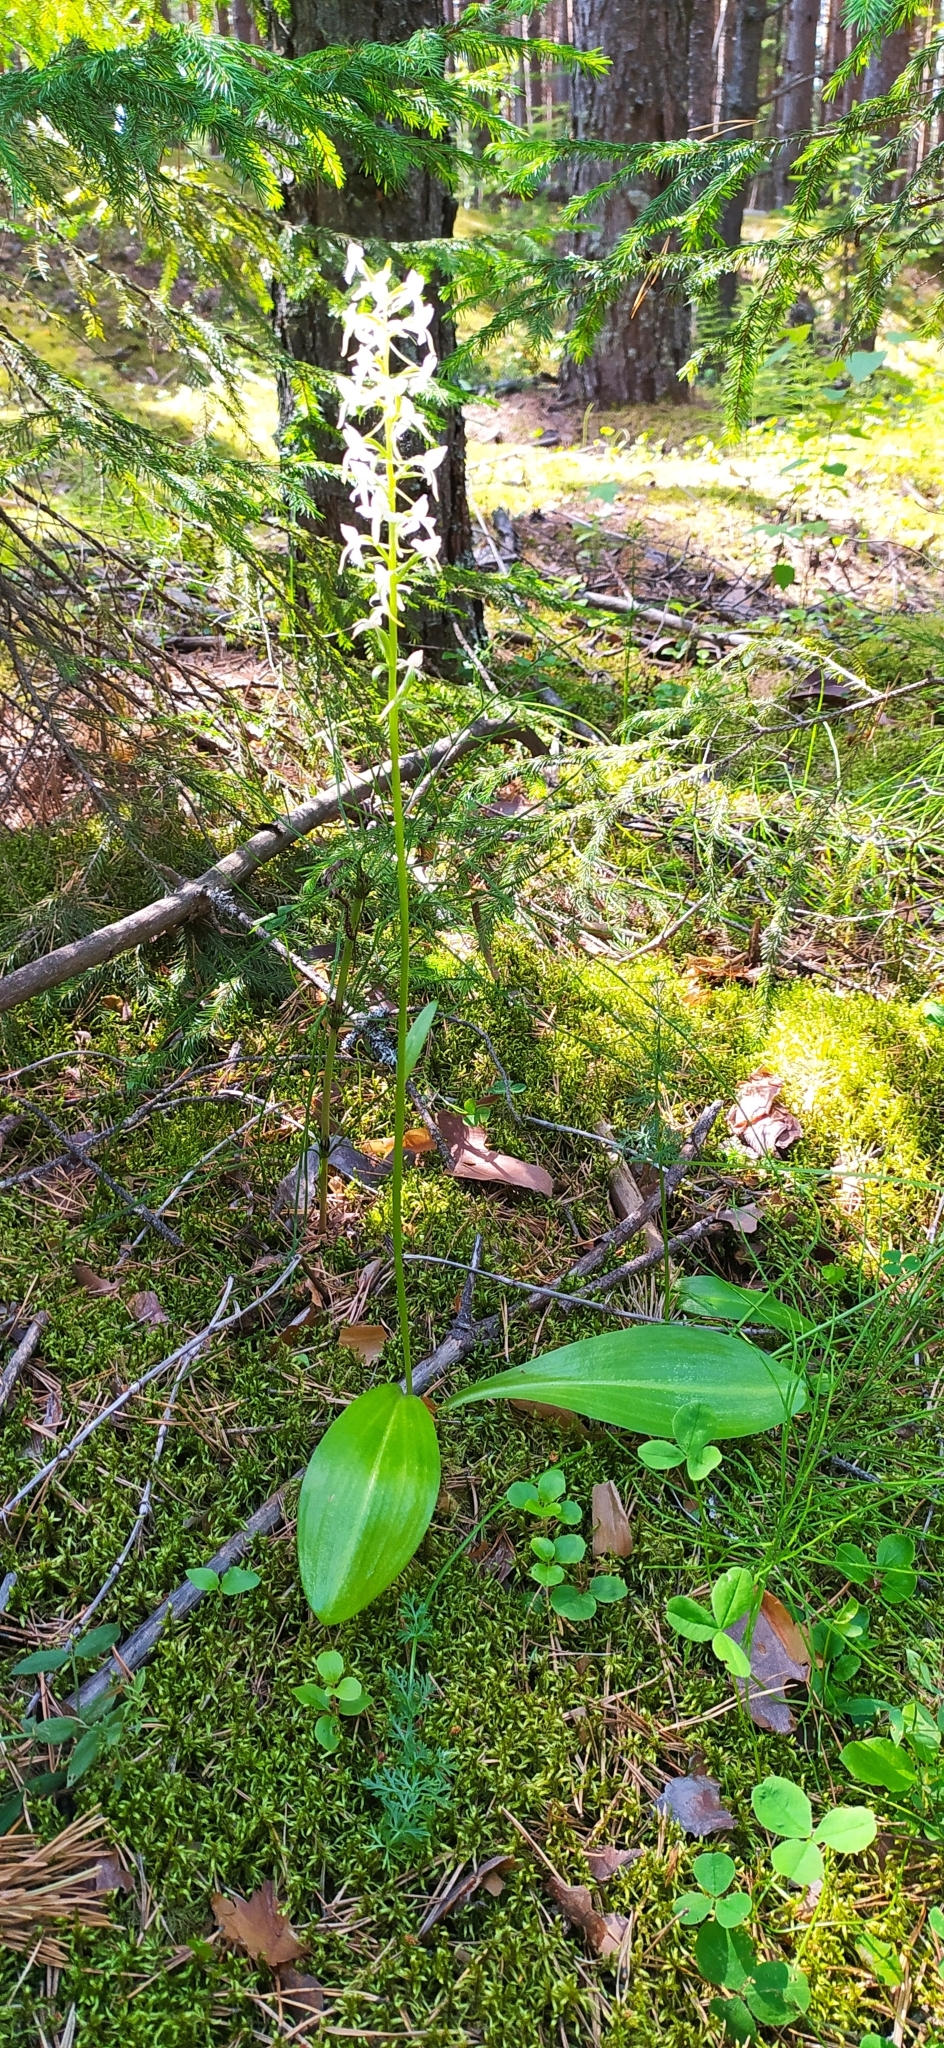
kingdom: Plantae
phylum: Tracheophyta
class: Liliopsida
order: Asparagales
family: Orchidaceae
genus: Platanthera
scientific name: Platanthera bifolia
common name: Lesser butterfly-orchid
